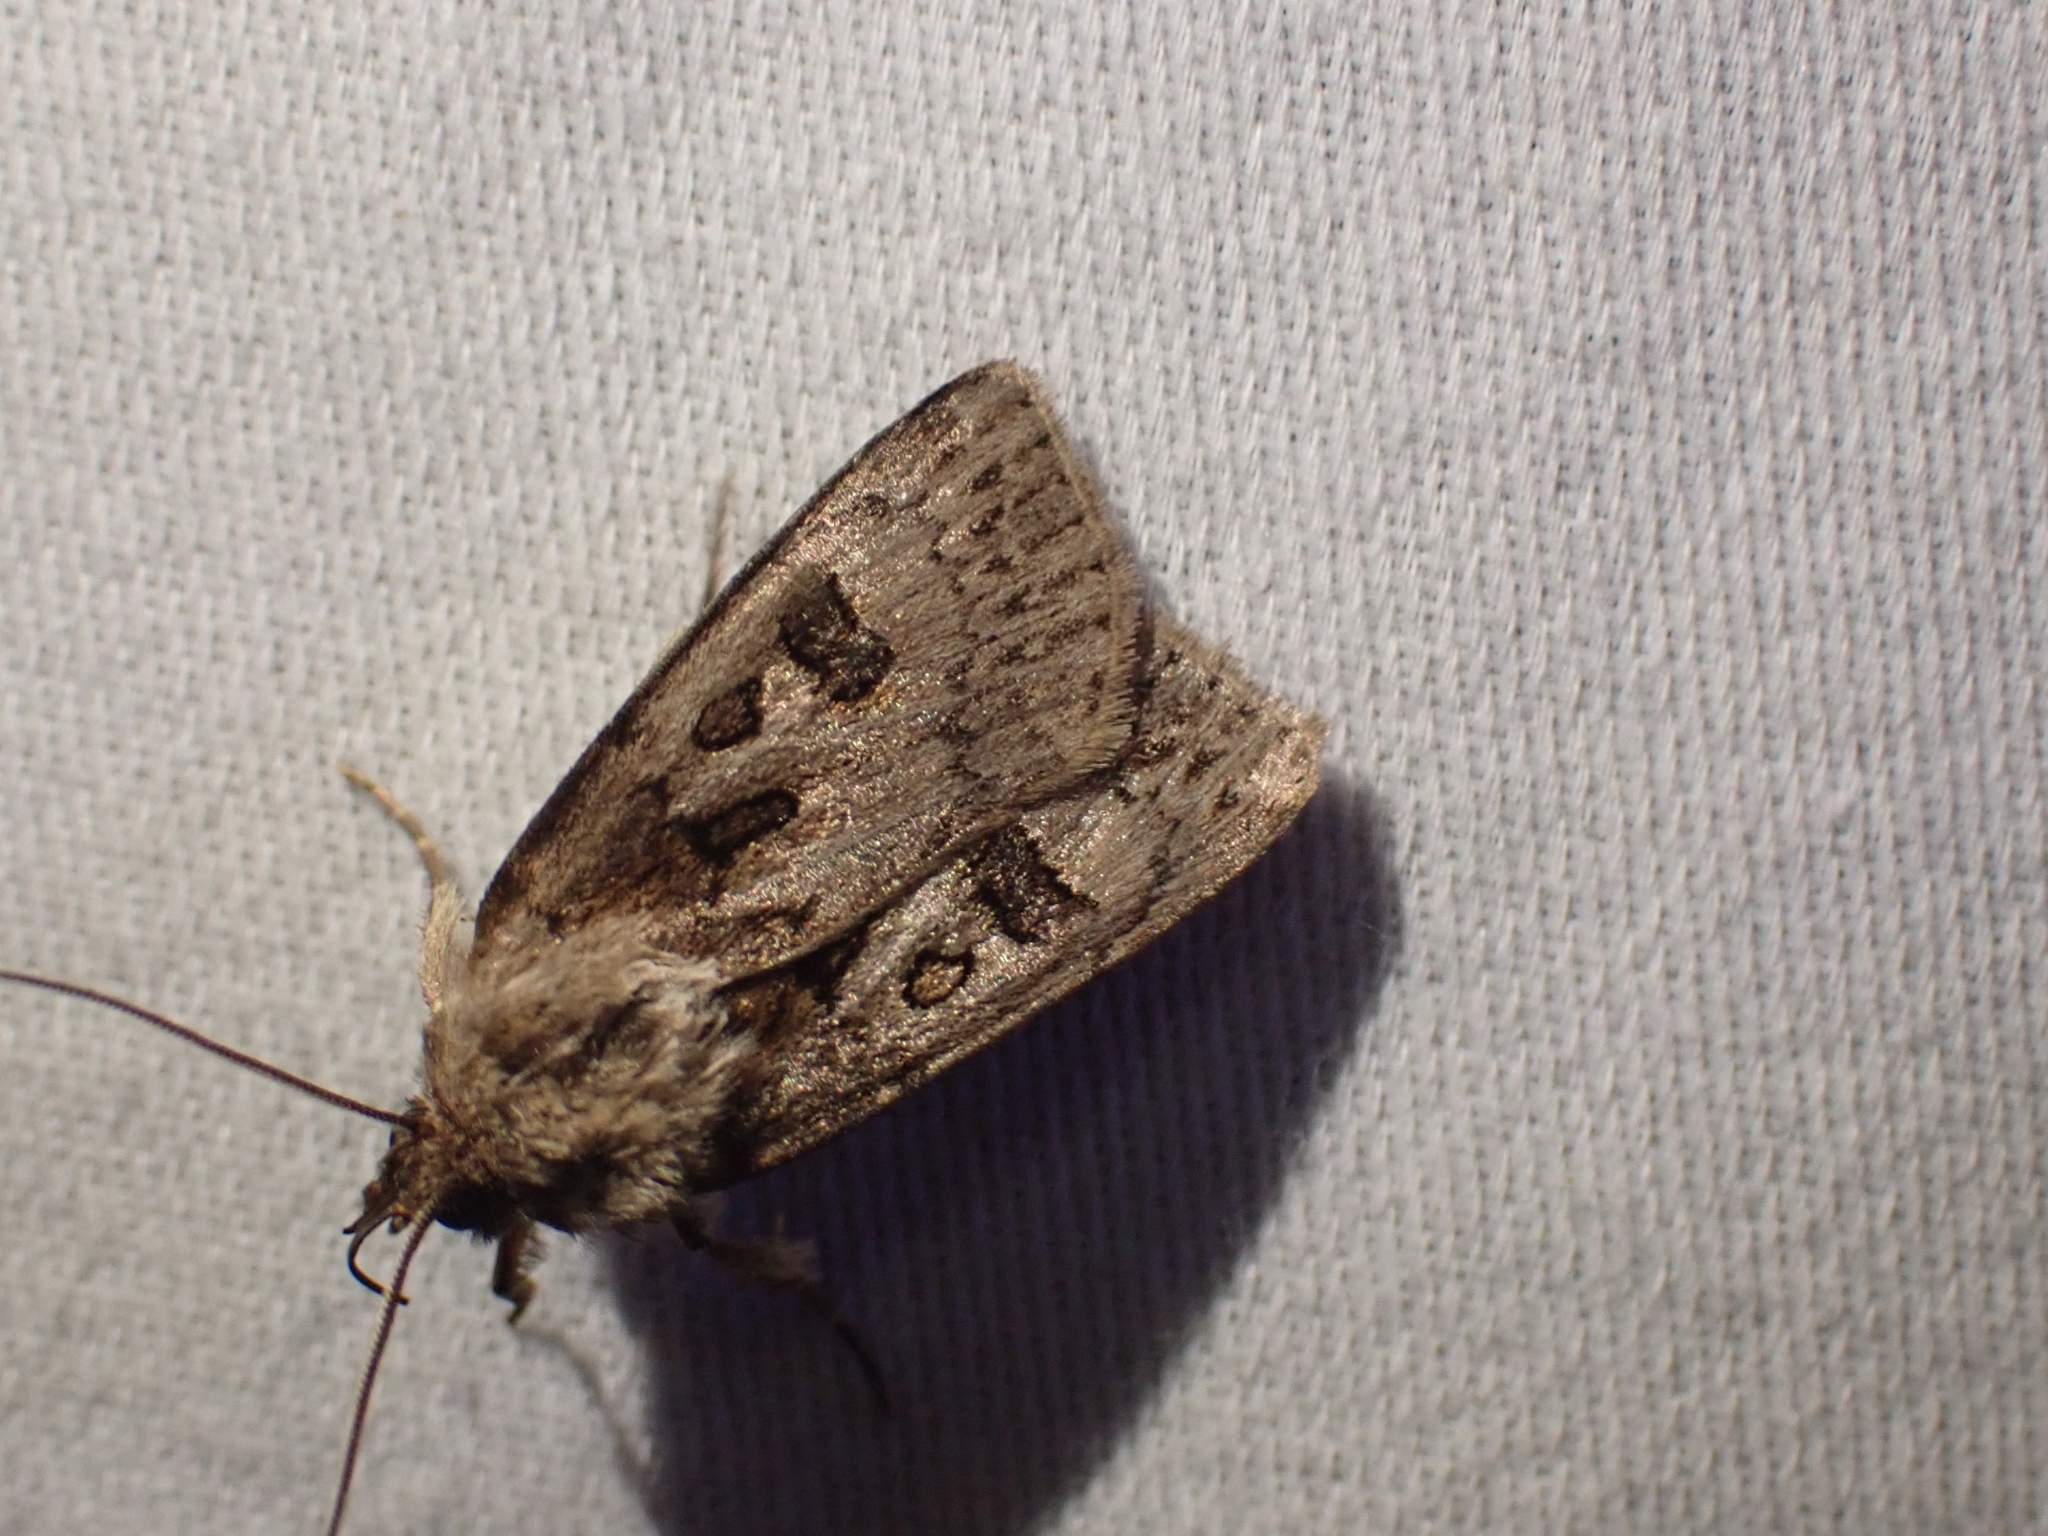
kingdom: Animalia
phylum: Arthropoda
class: Insecta
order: Lepidoptera
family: Noctuidae
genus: Agrotis
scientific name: Agrotis ruta
